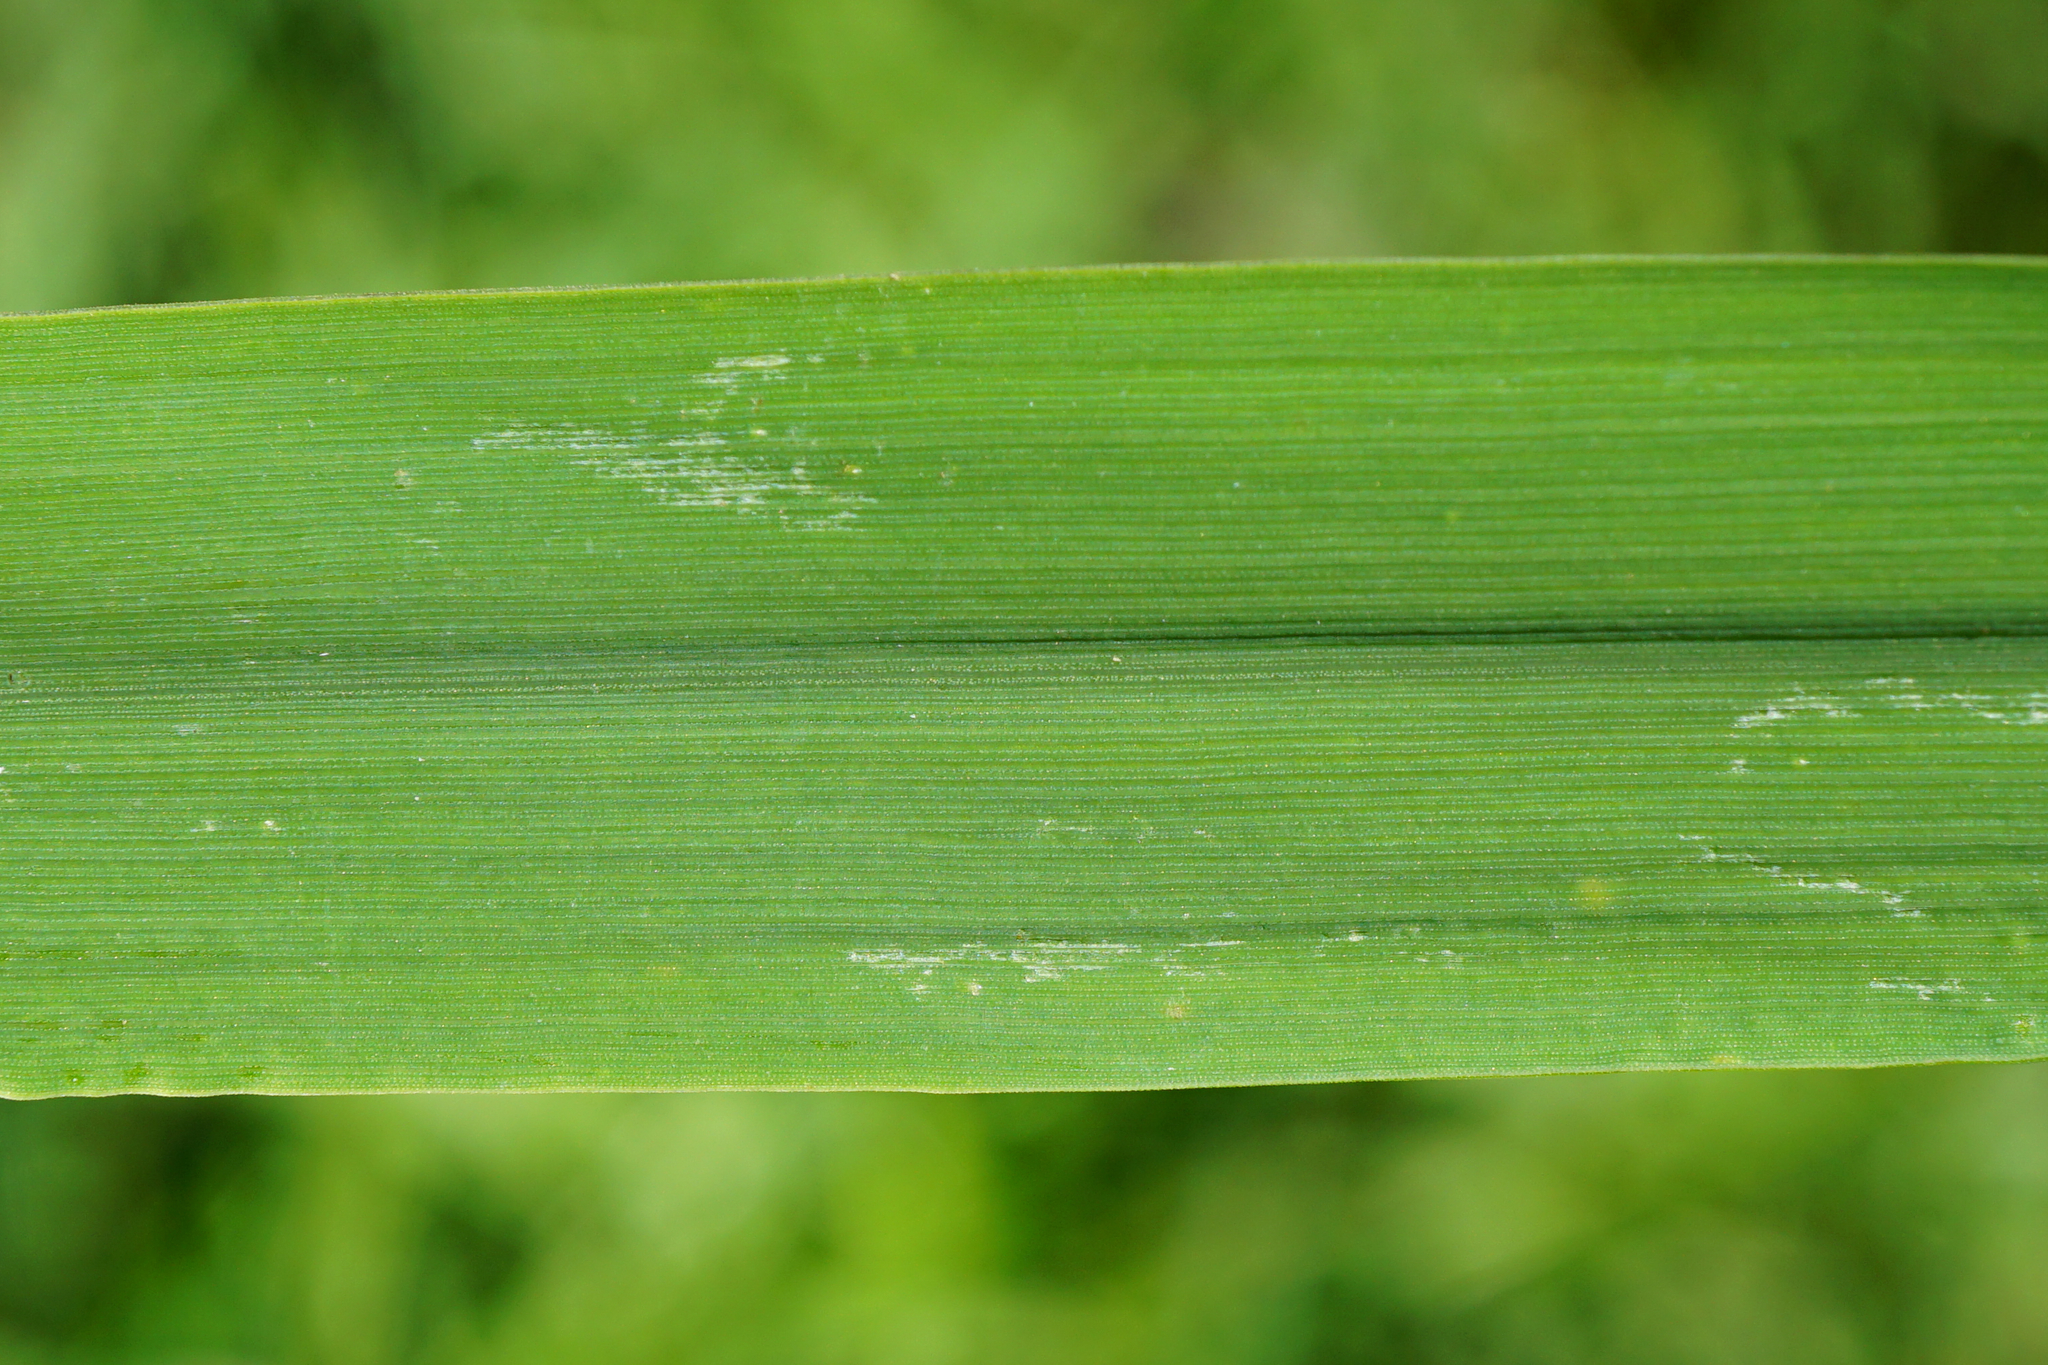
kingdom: Plantae
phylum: Tracheophyta
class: Liliopsida
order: Poales
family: Poaceae
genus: Phalaris
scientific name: Phalaris arundinacea
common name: Reed canary-grass
